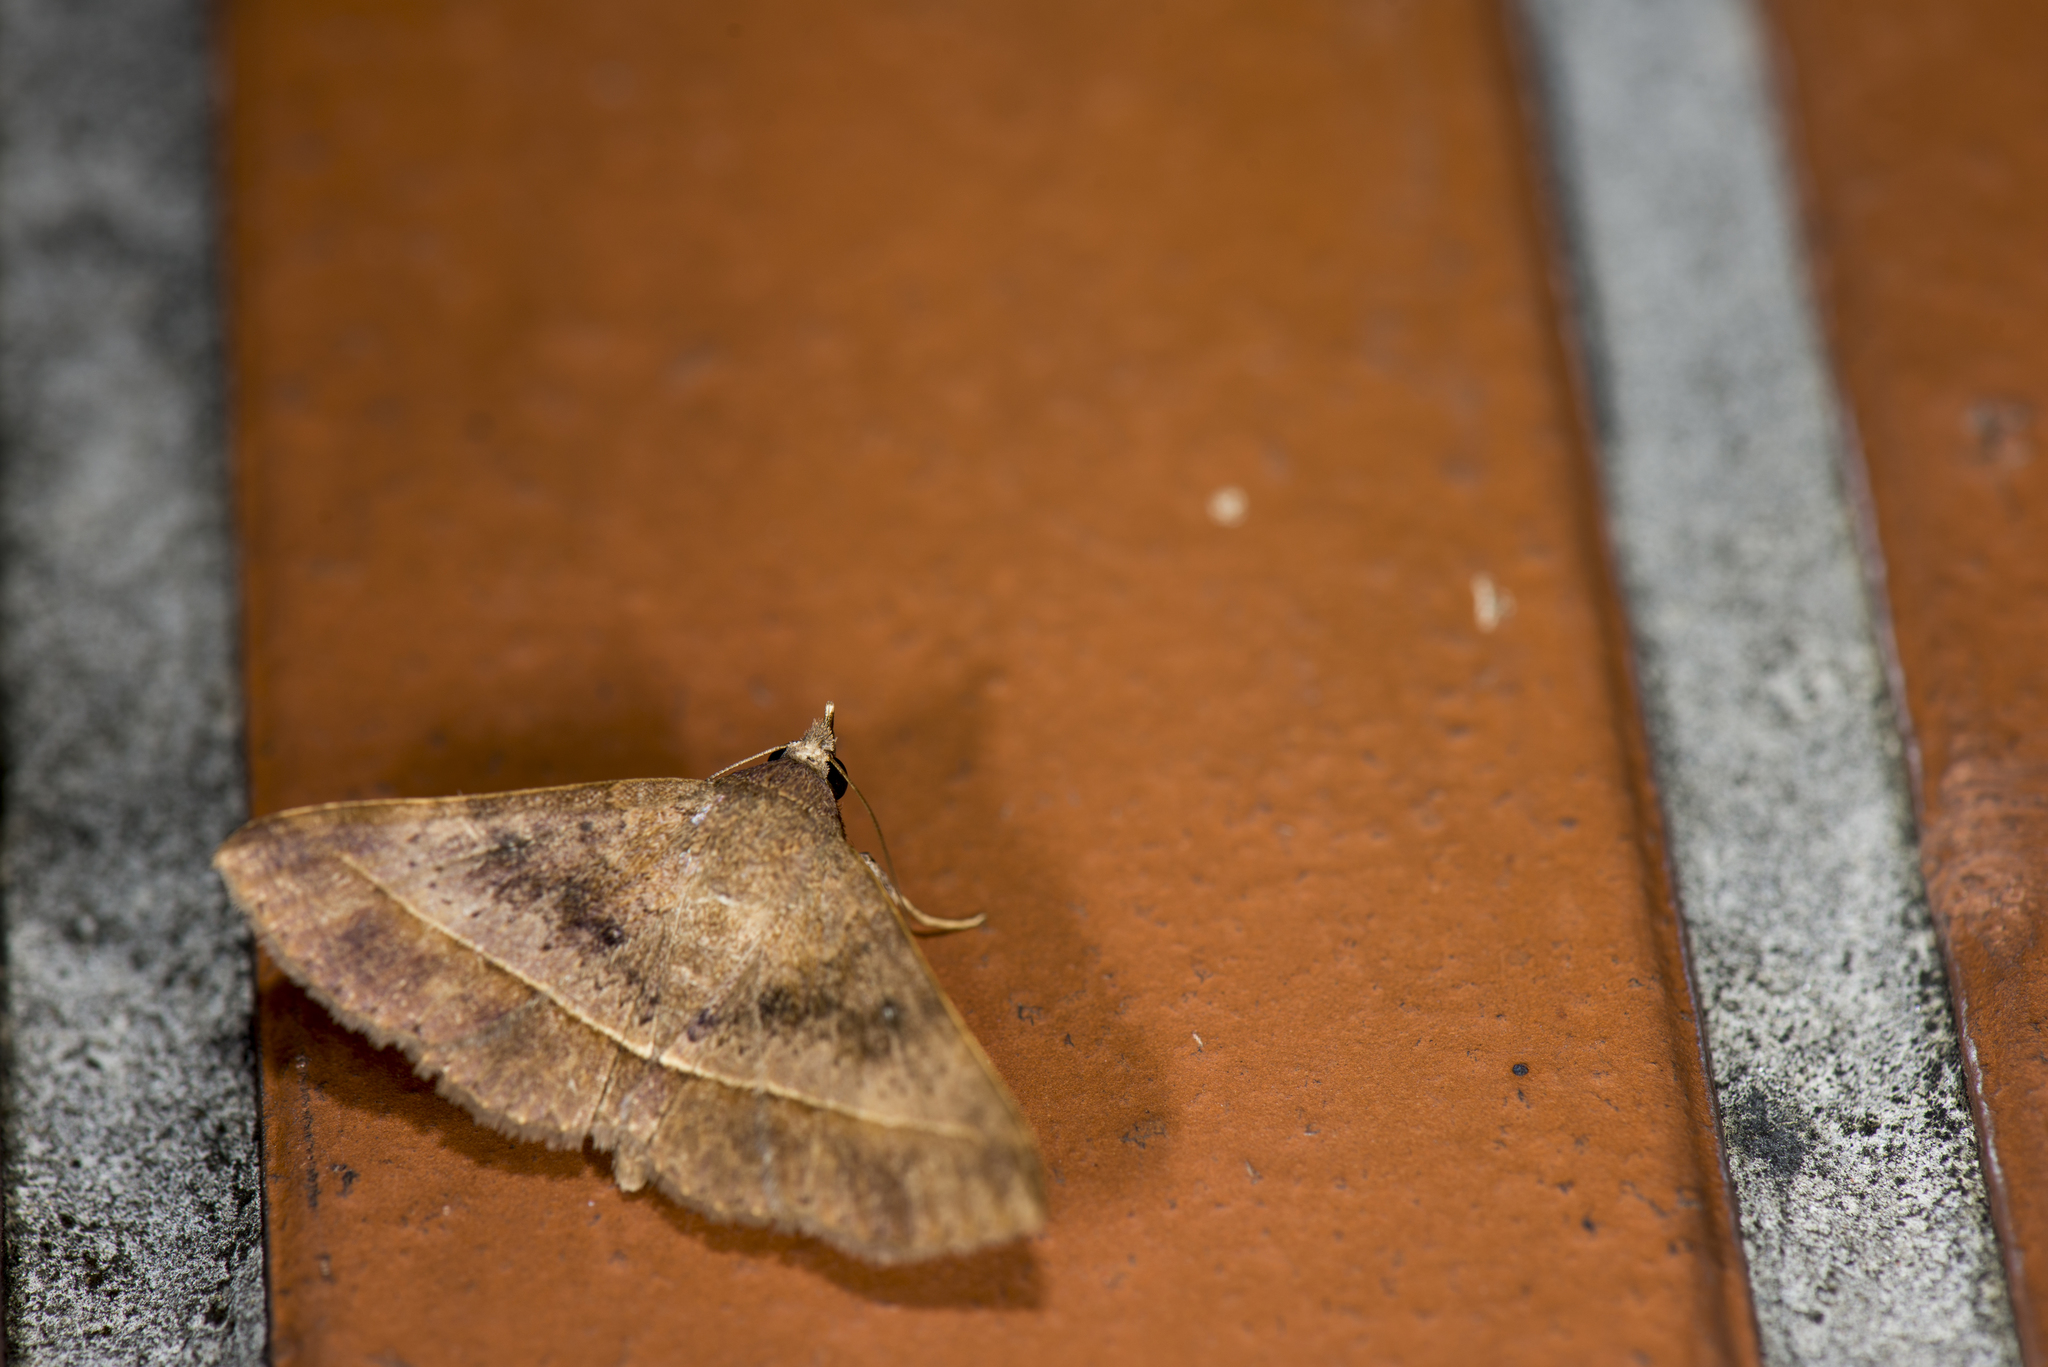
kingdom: Animalia
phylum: Arthropoda
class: Insecta
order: Lepidoptera
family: Erebidae
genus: Hypospila
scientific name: Hypospila bolinoides
